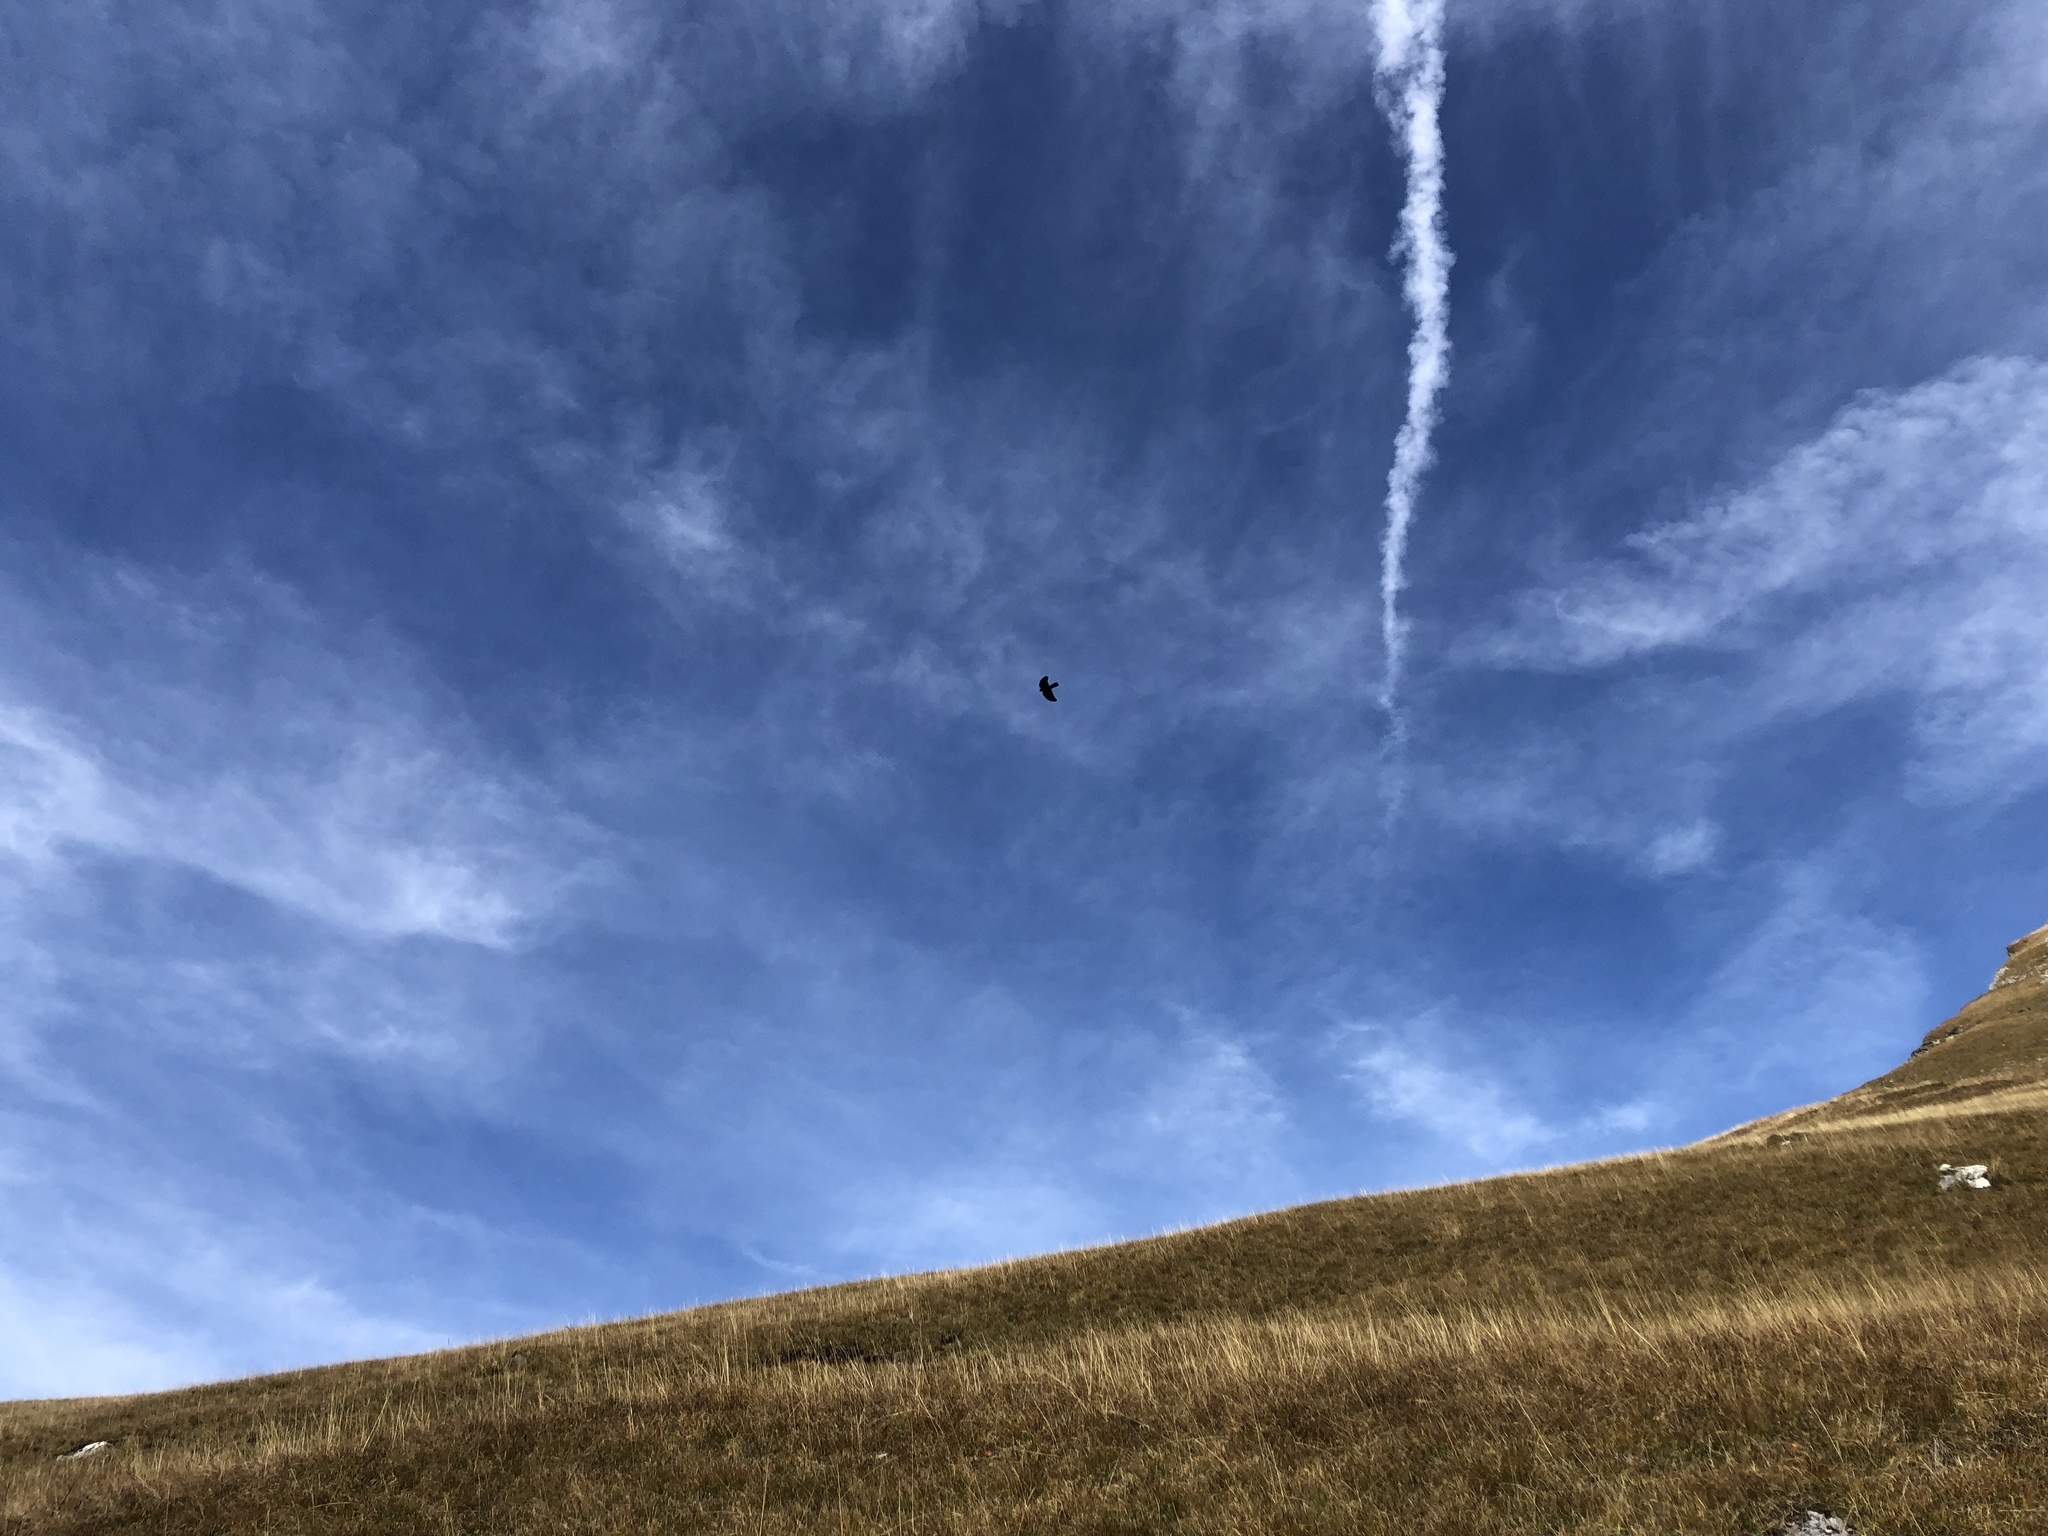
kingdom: Animalia
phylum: Chordata
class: Aves
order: Passeriformes
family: Corvidae
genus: Pyrrhocorax
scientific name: Pyrrhocorax graculus
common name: Alpine chough
